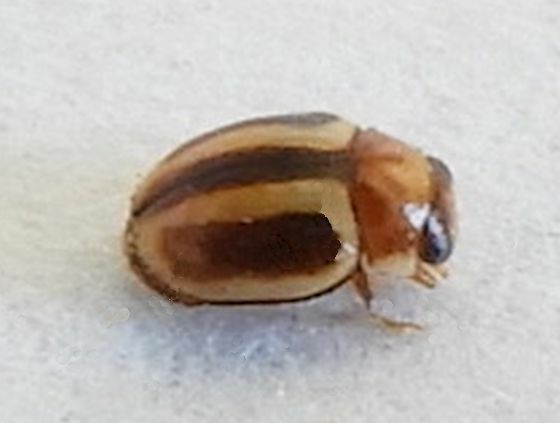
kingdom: Animalia
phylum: Arthropoda
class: Insecta
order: Coleoptera
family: Coccinellidae
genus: Hyperaspidius
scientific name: Hyperaspidius shauli
